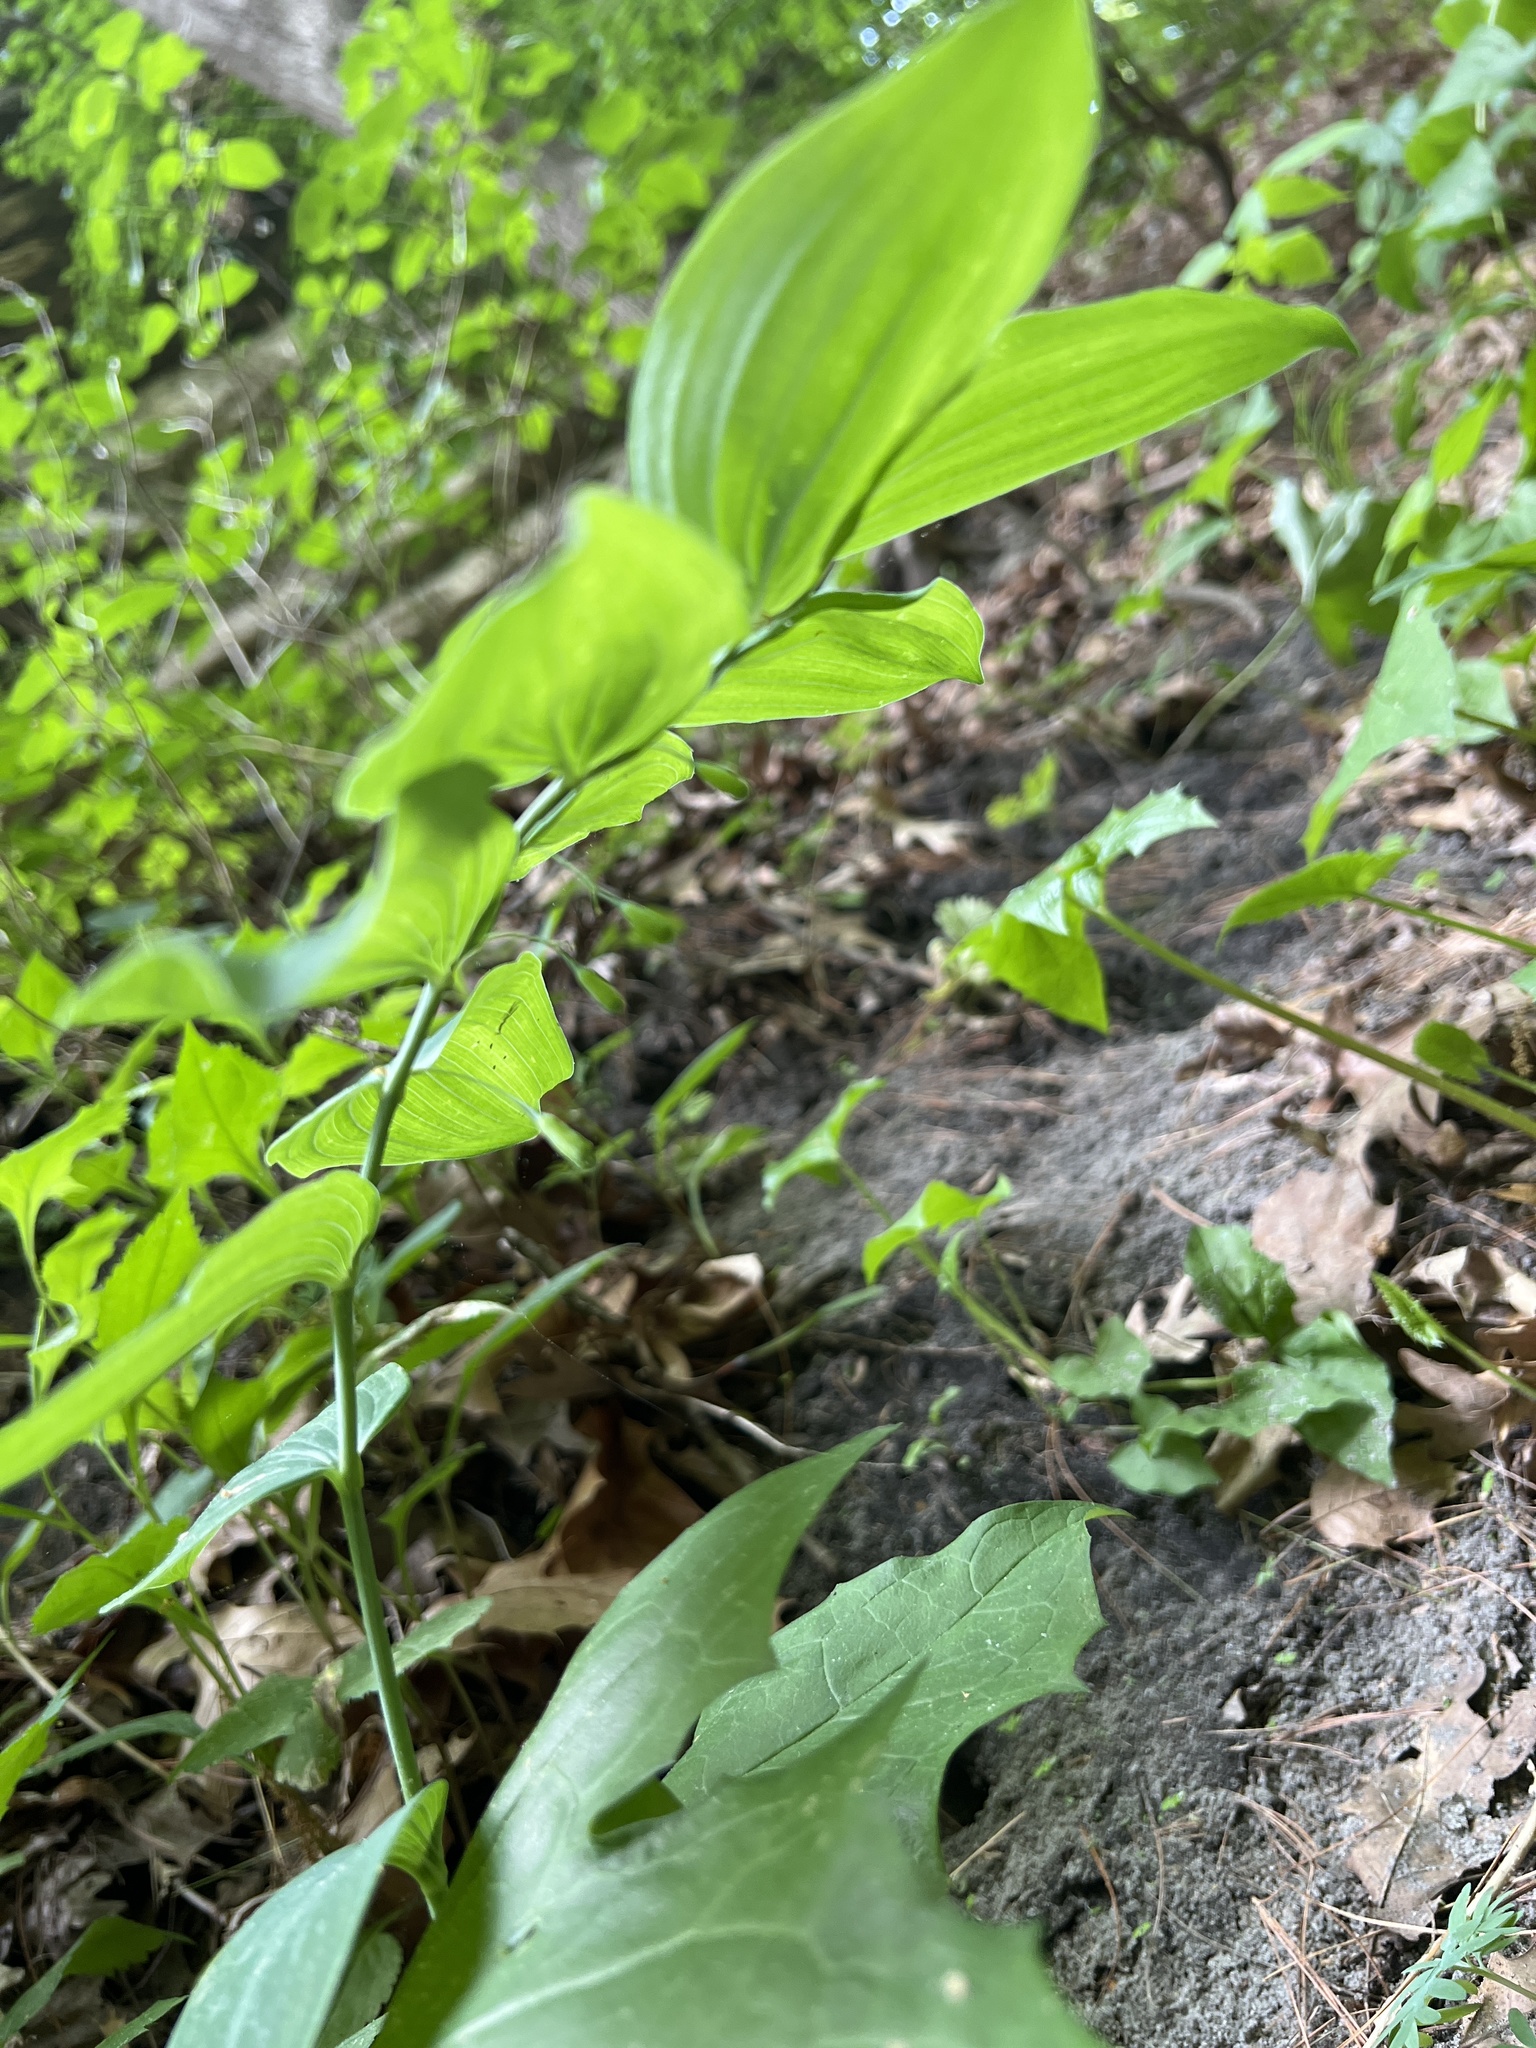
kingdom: Plantae
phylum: Tracheophyta
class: Liliopsida
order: Asparagales
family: Asparagaceae
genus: Polygonatum
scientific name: Polygonatum biflorum
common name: American solomon's-seal
